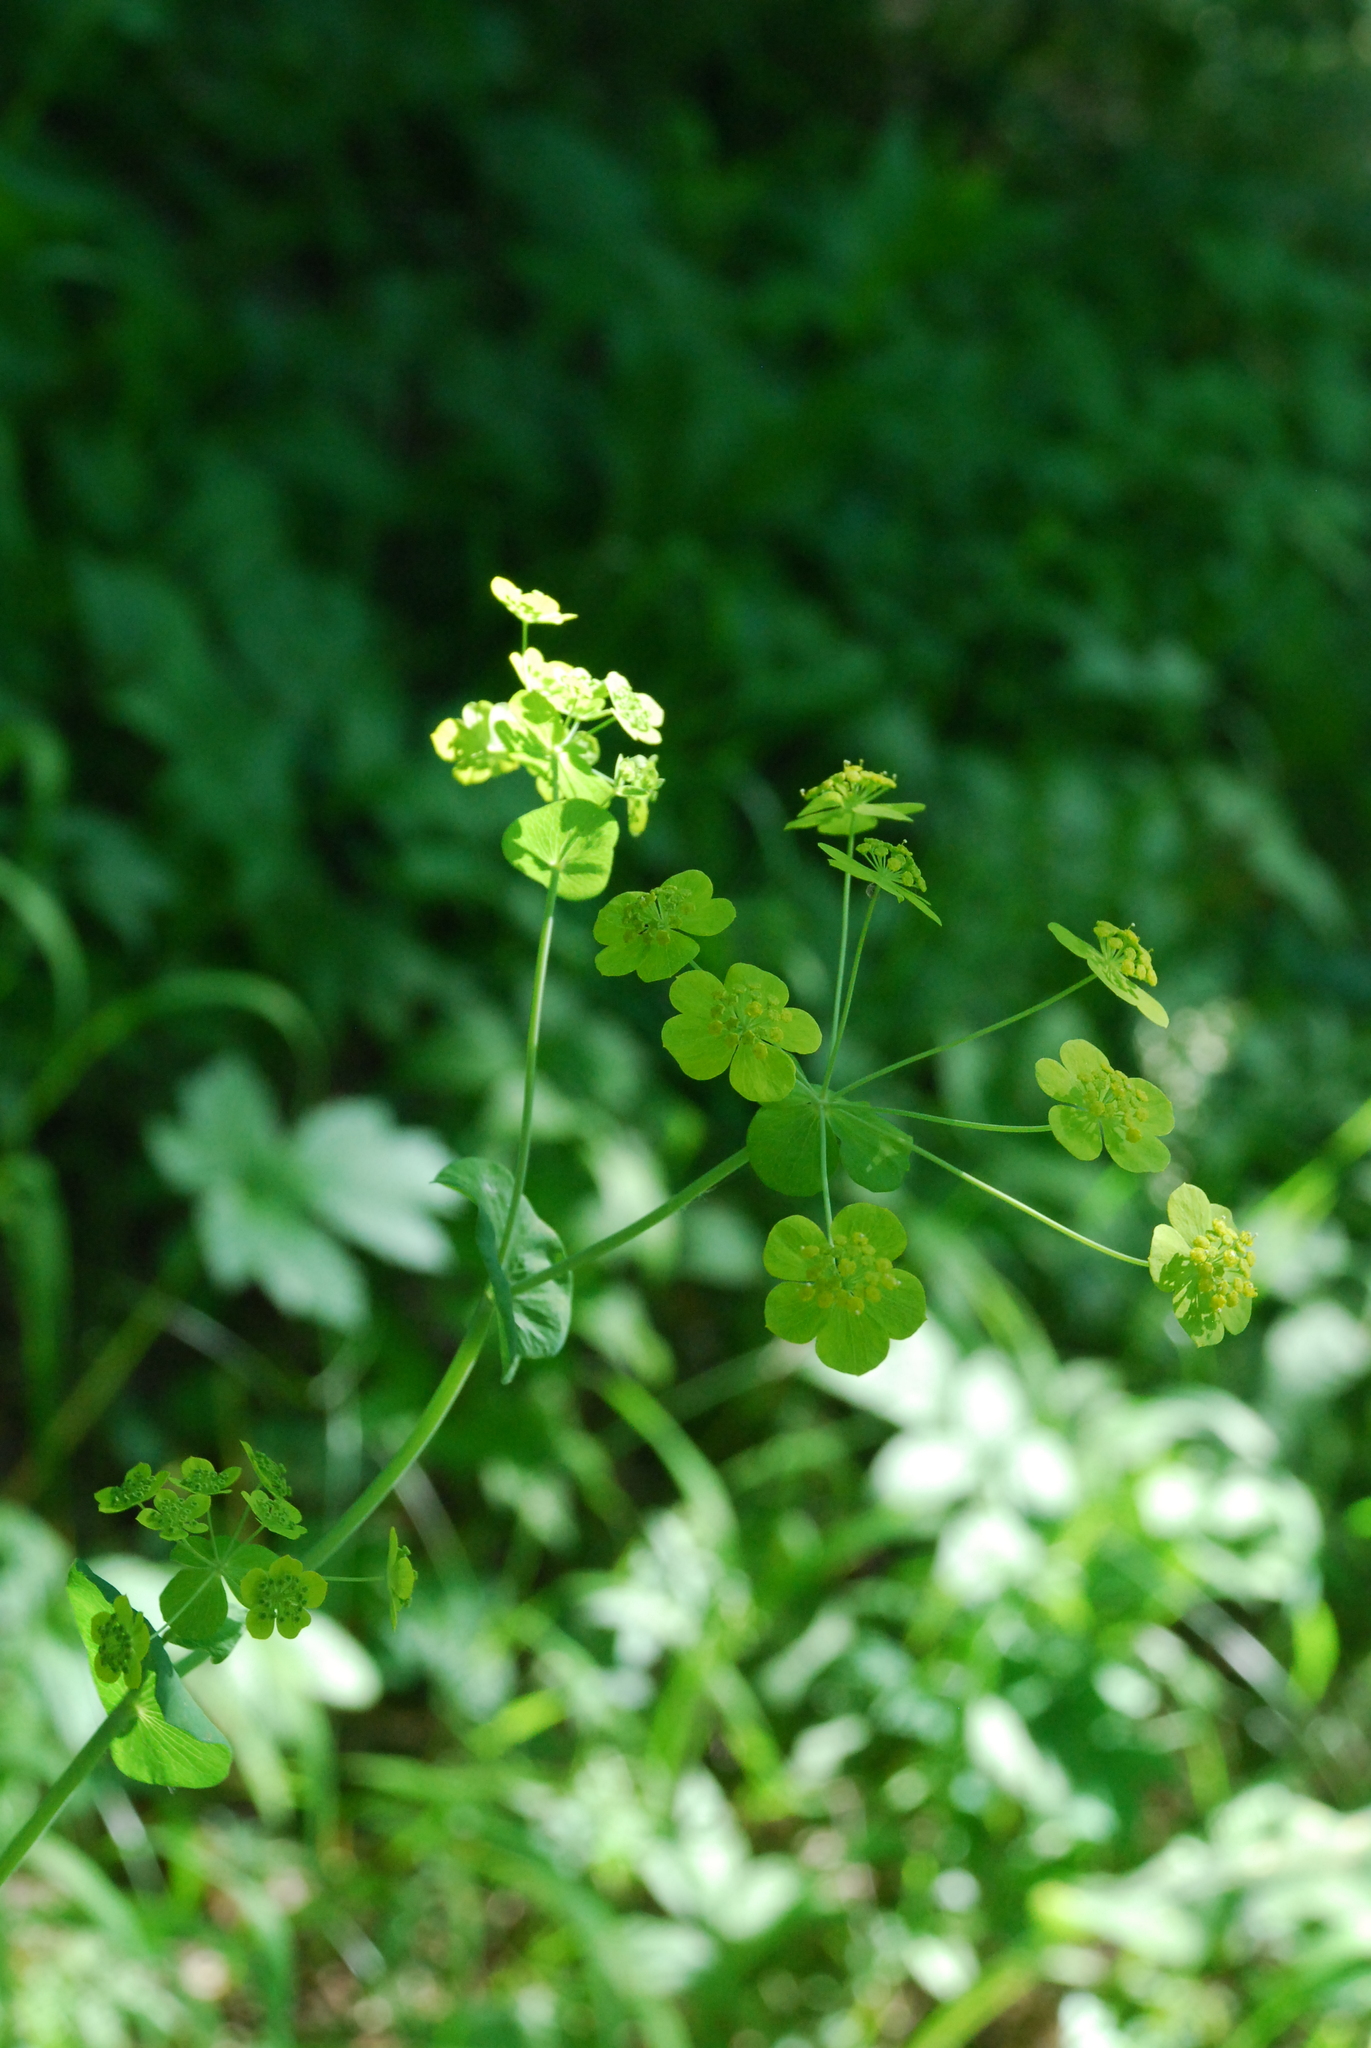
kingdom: Plantae
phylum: Tracheophyta
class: Magnoliopsida
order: Apiales
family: Apiaceae
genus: Bupleurum
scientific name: Bupleurum aureum
